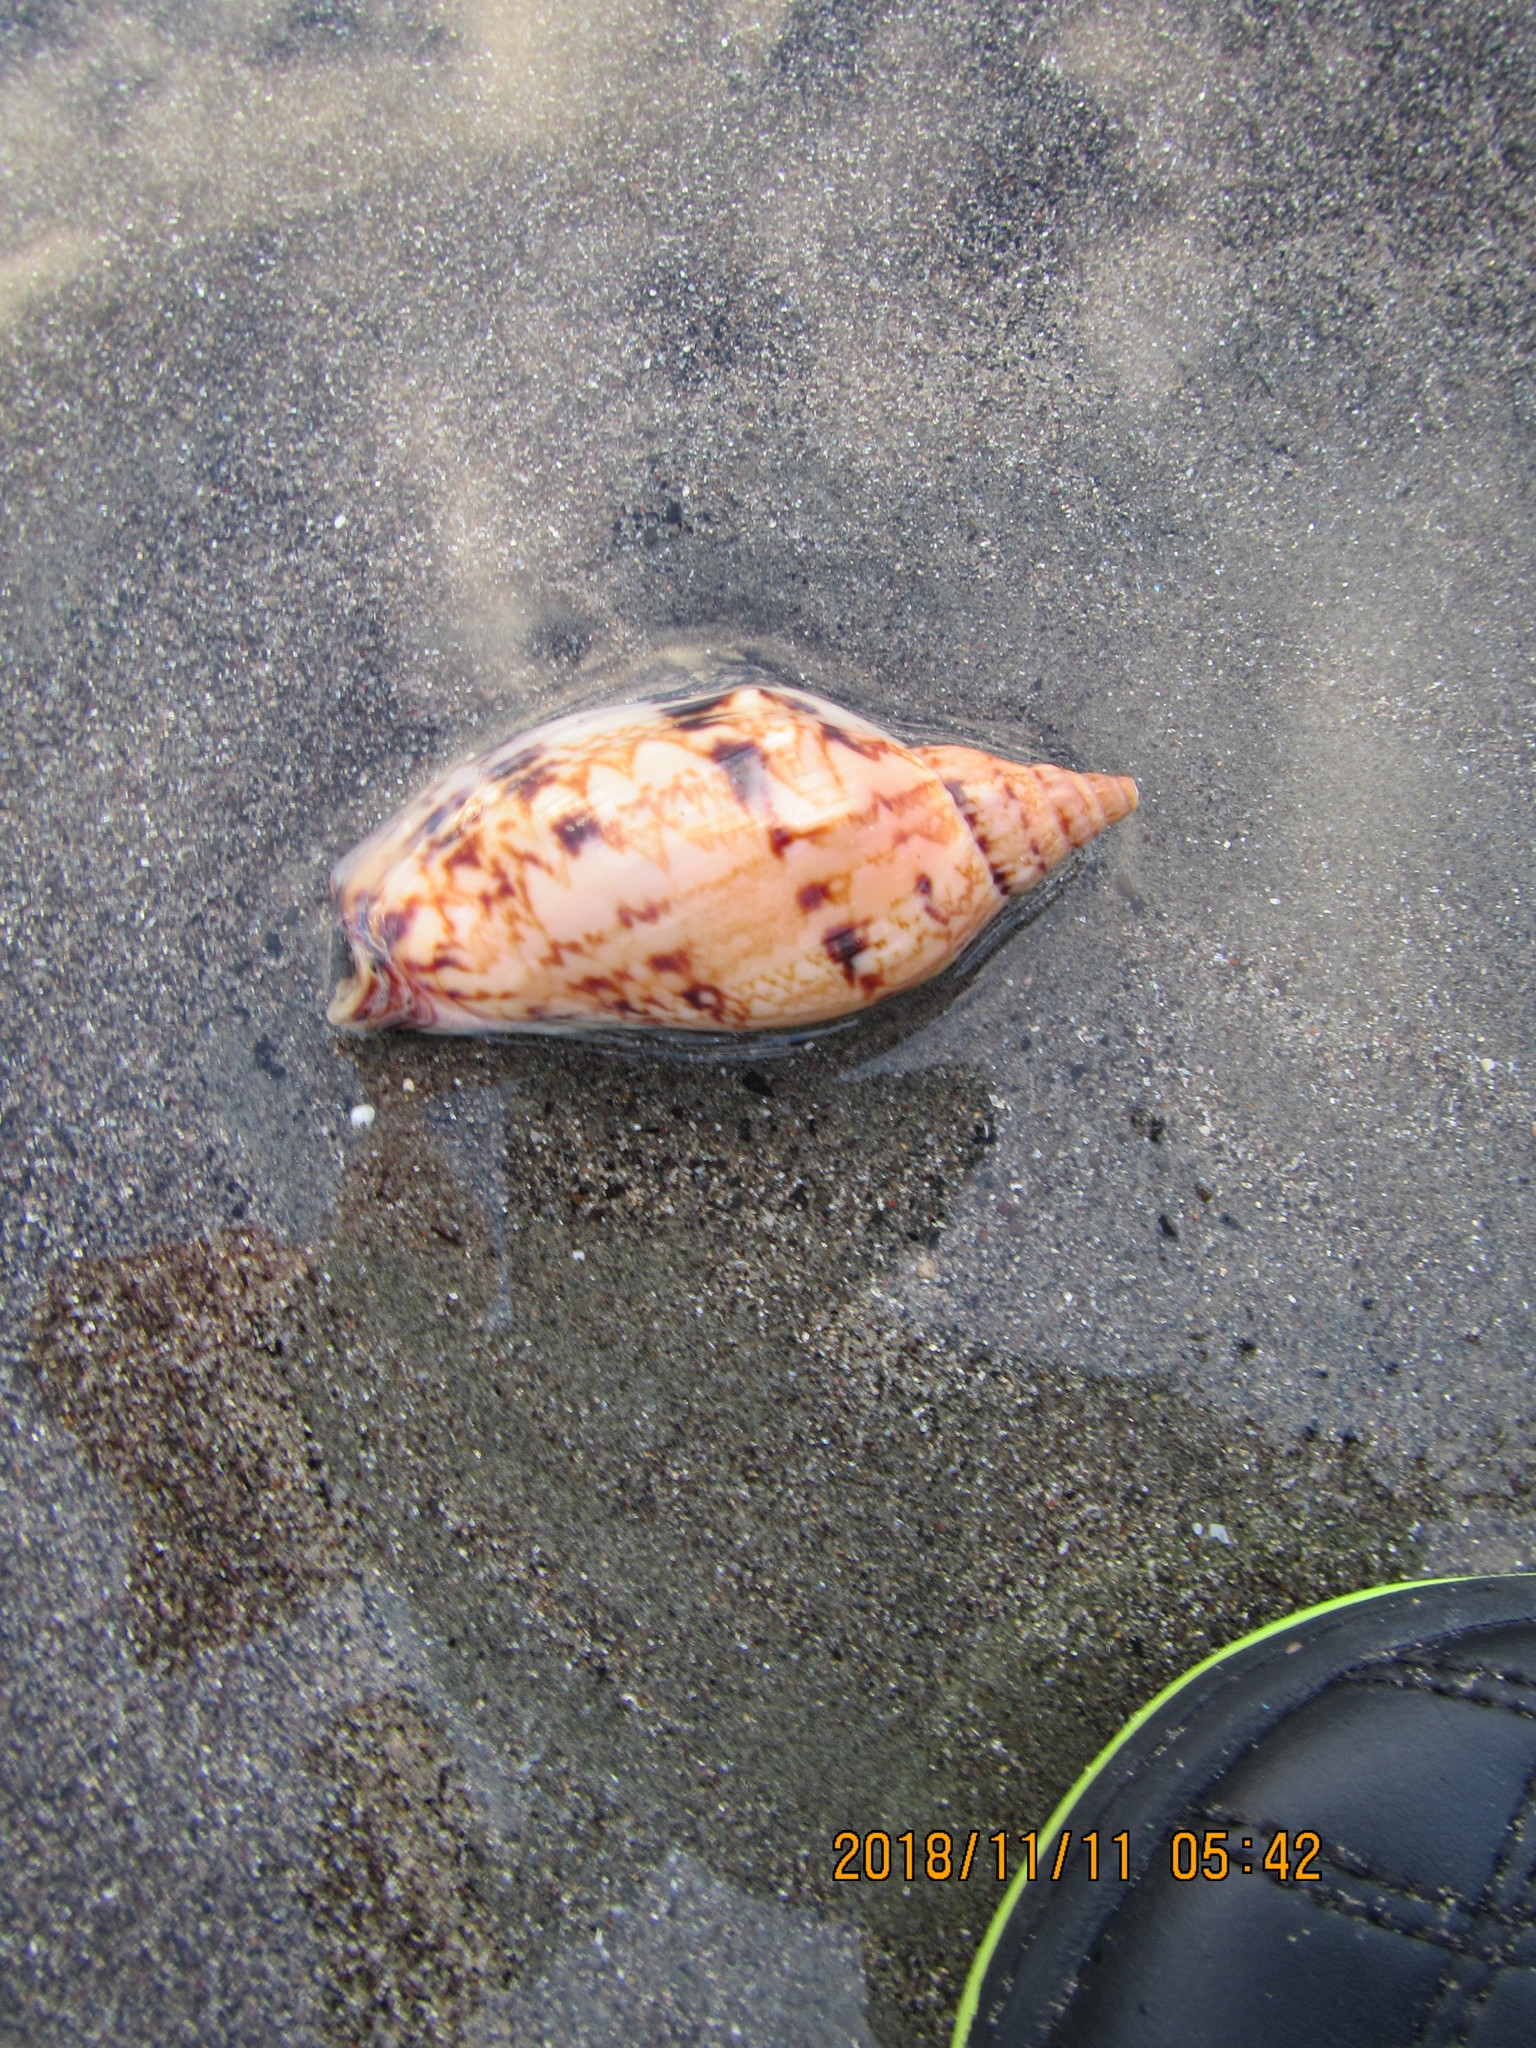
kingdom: Animalia
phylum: Mollusca
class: Gastropoda
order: Neogastropoda
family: Volutidae
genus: Alcithoe
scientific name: Alcithoe arabica
